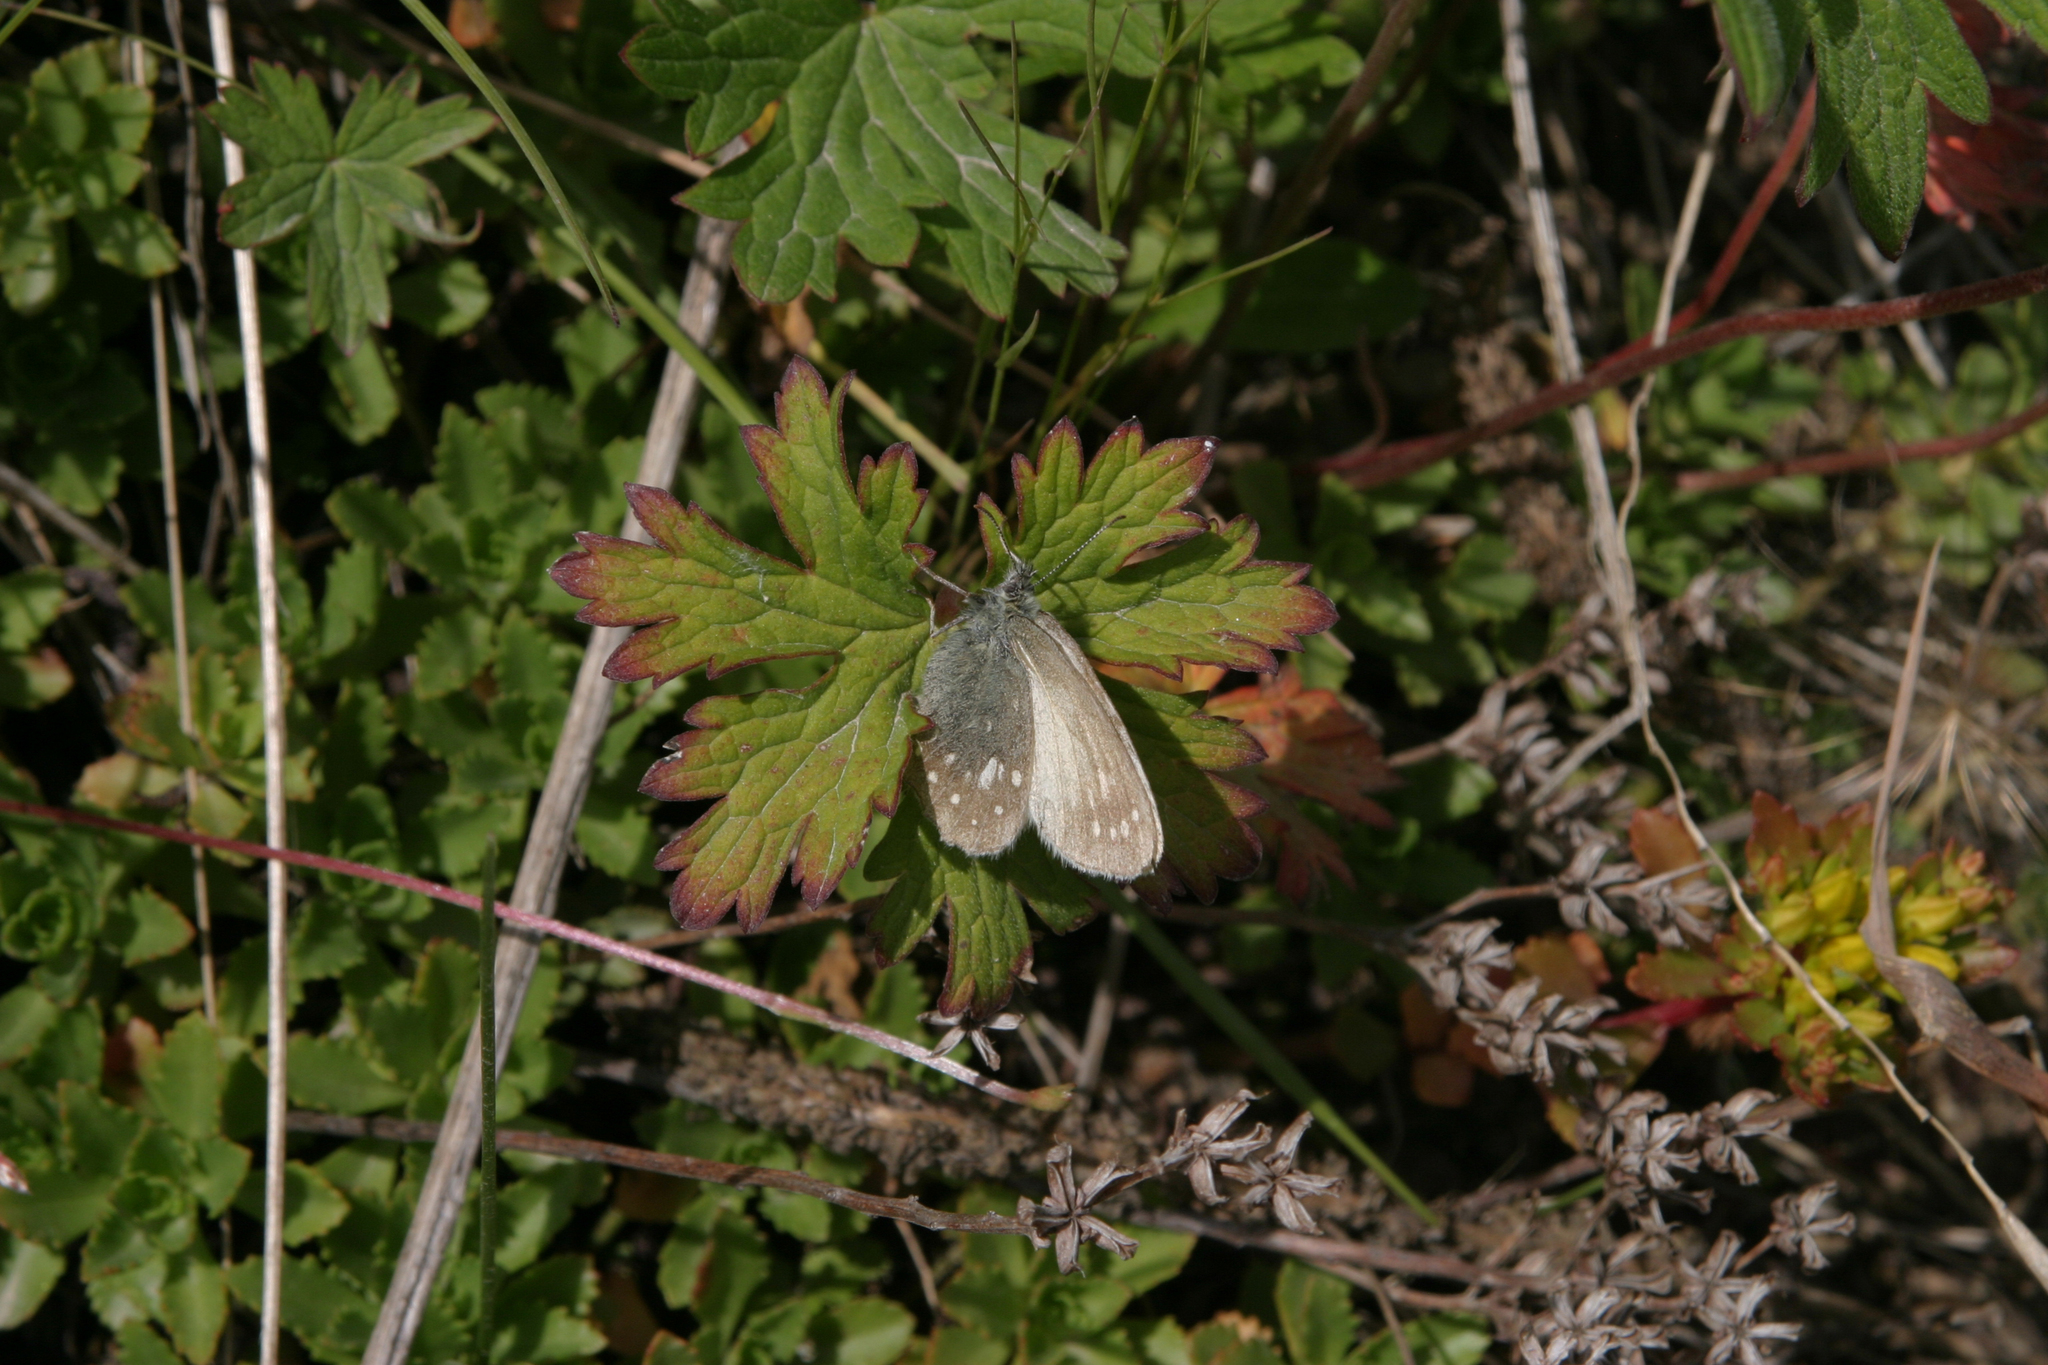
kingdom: Animalia
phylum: Arthropoda
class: Insecta
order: Lepidoptera
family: Nymphalidae
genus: Coenonympha
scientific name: Coenonympha sunbecca
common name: Sunbecca heath
